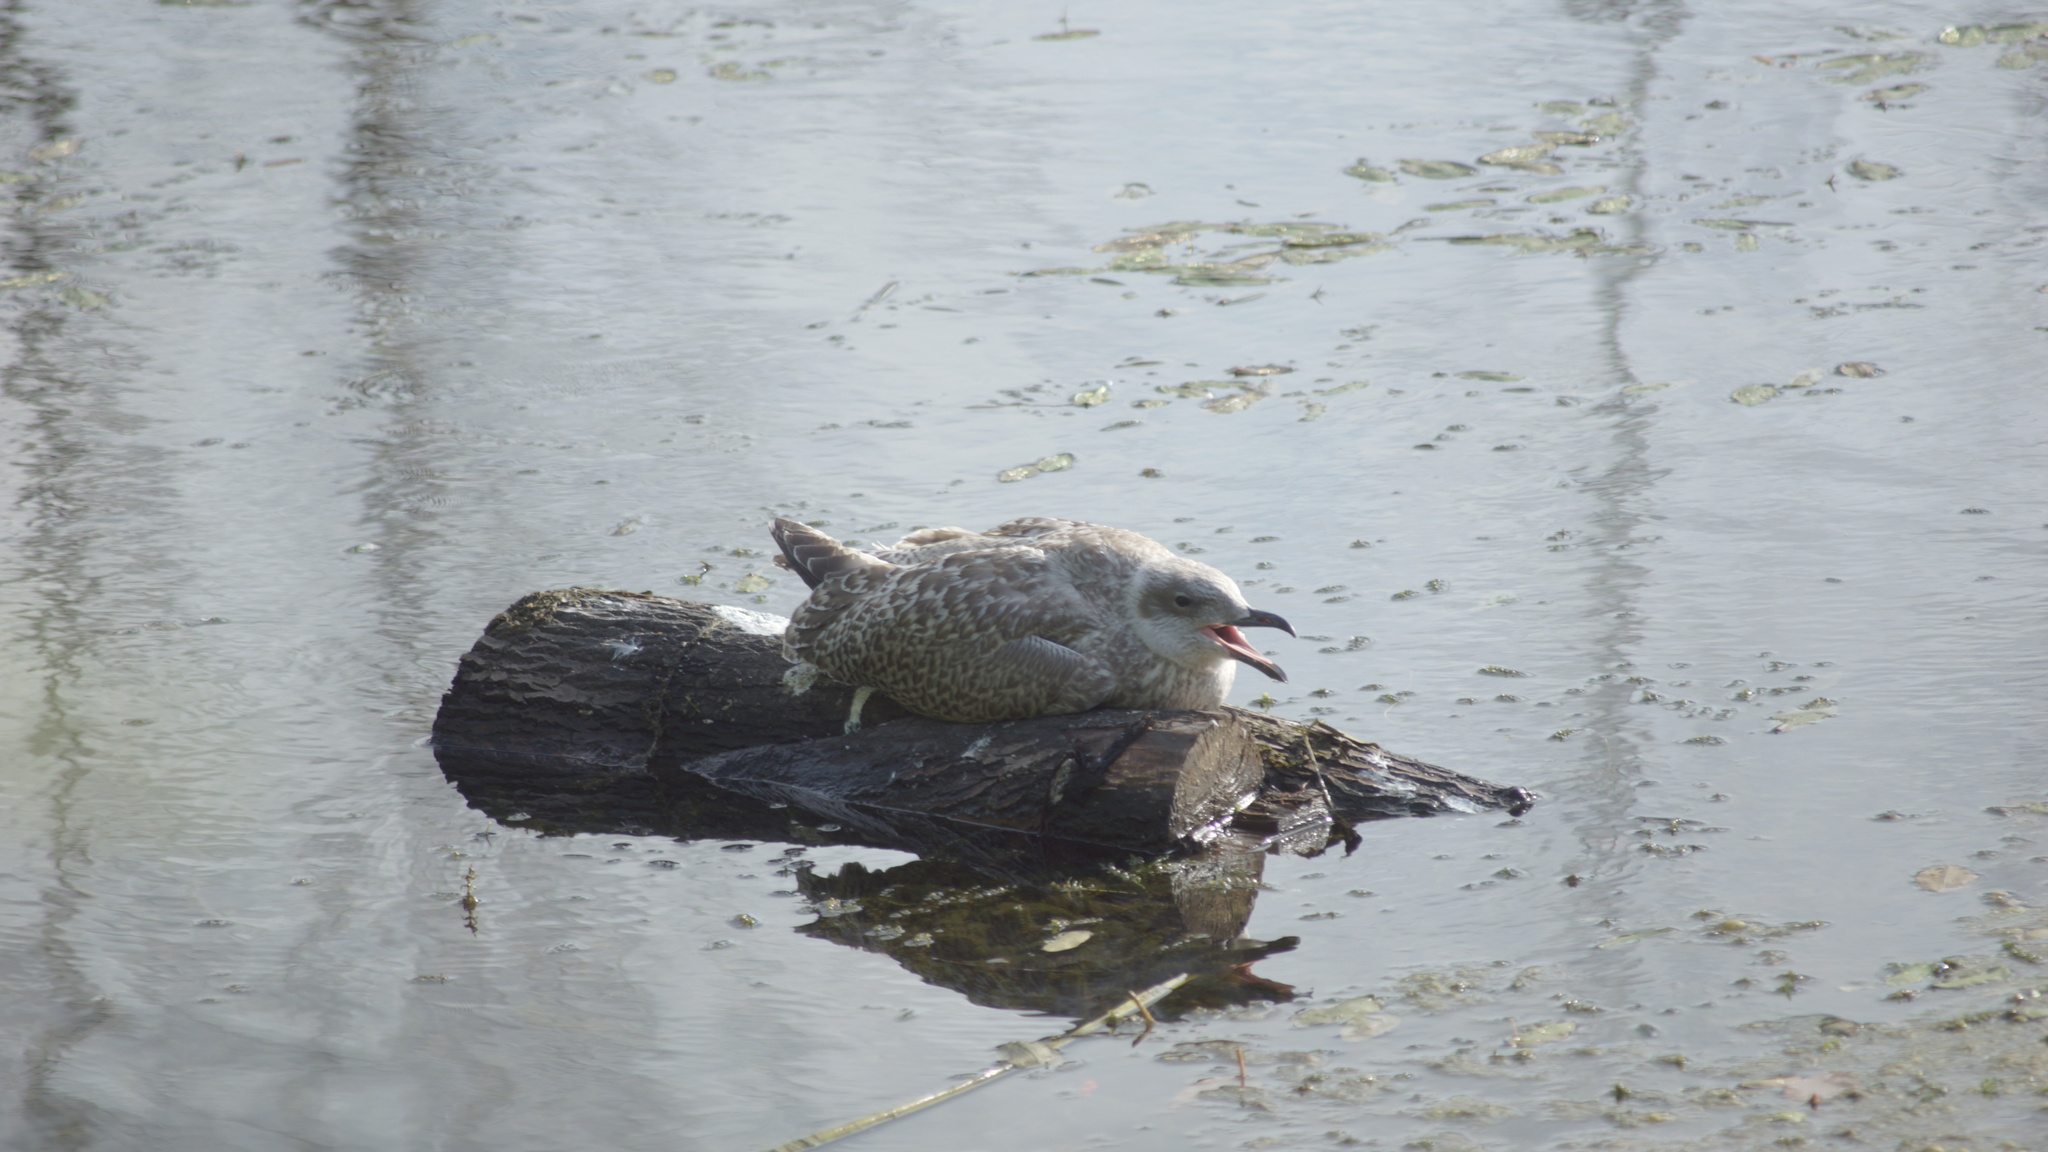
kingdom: Animalia
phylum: Chordata
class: Aves
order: Charadriiformes
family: Laridae
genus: Larus
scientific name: Larus argentatus
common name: Herring gull
